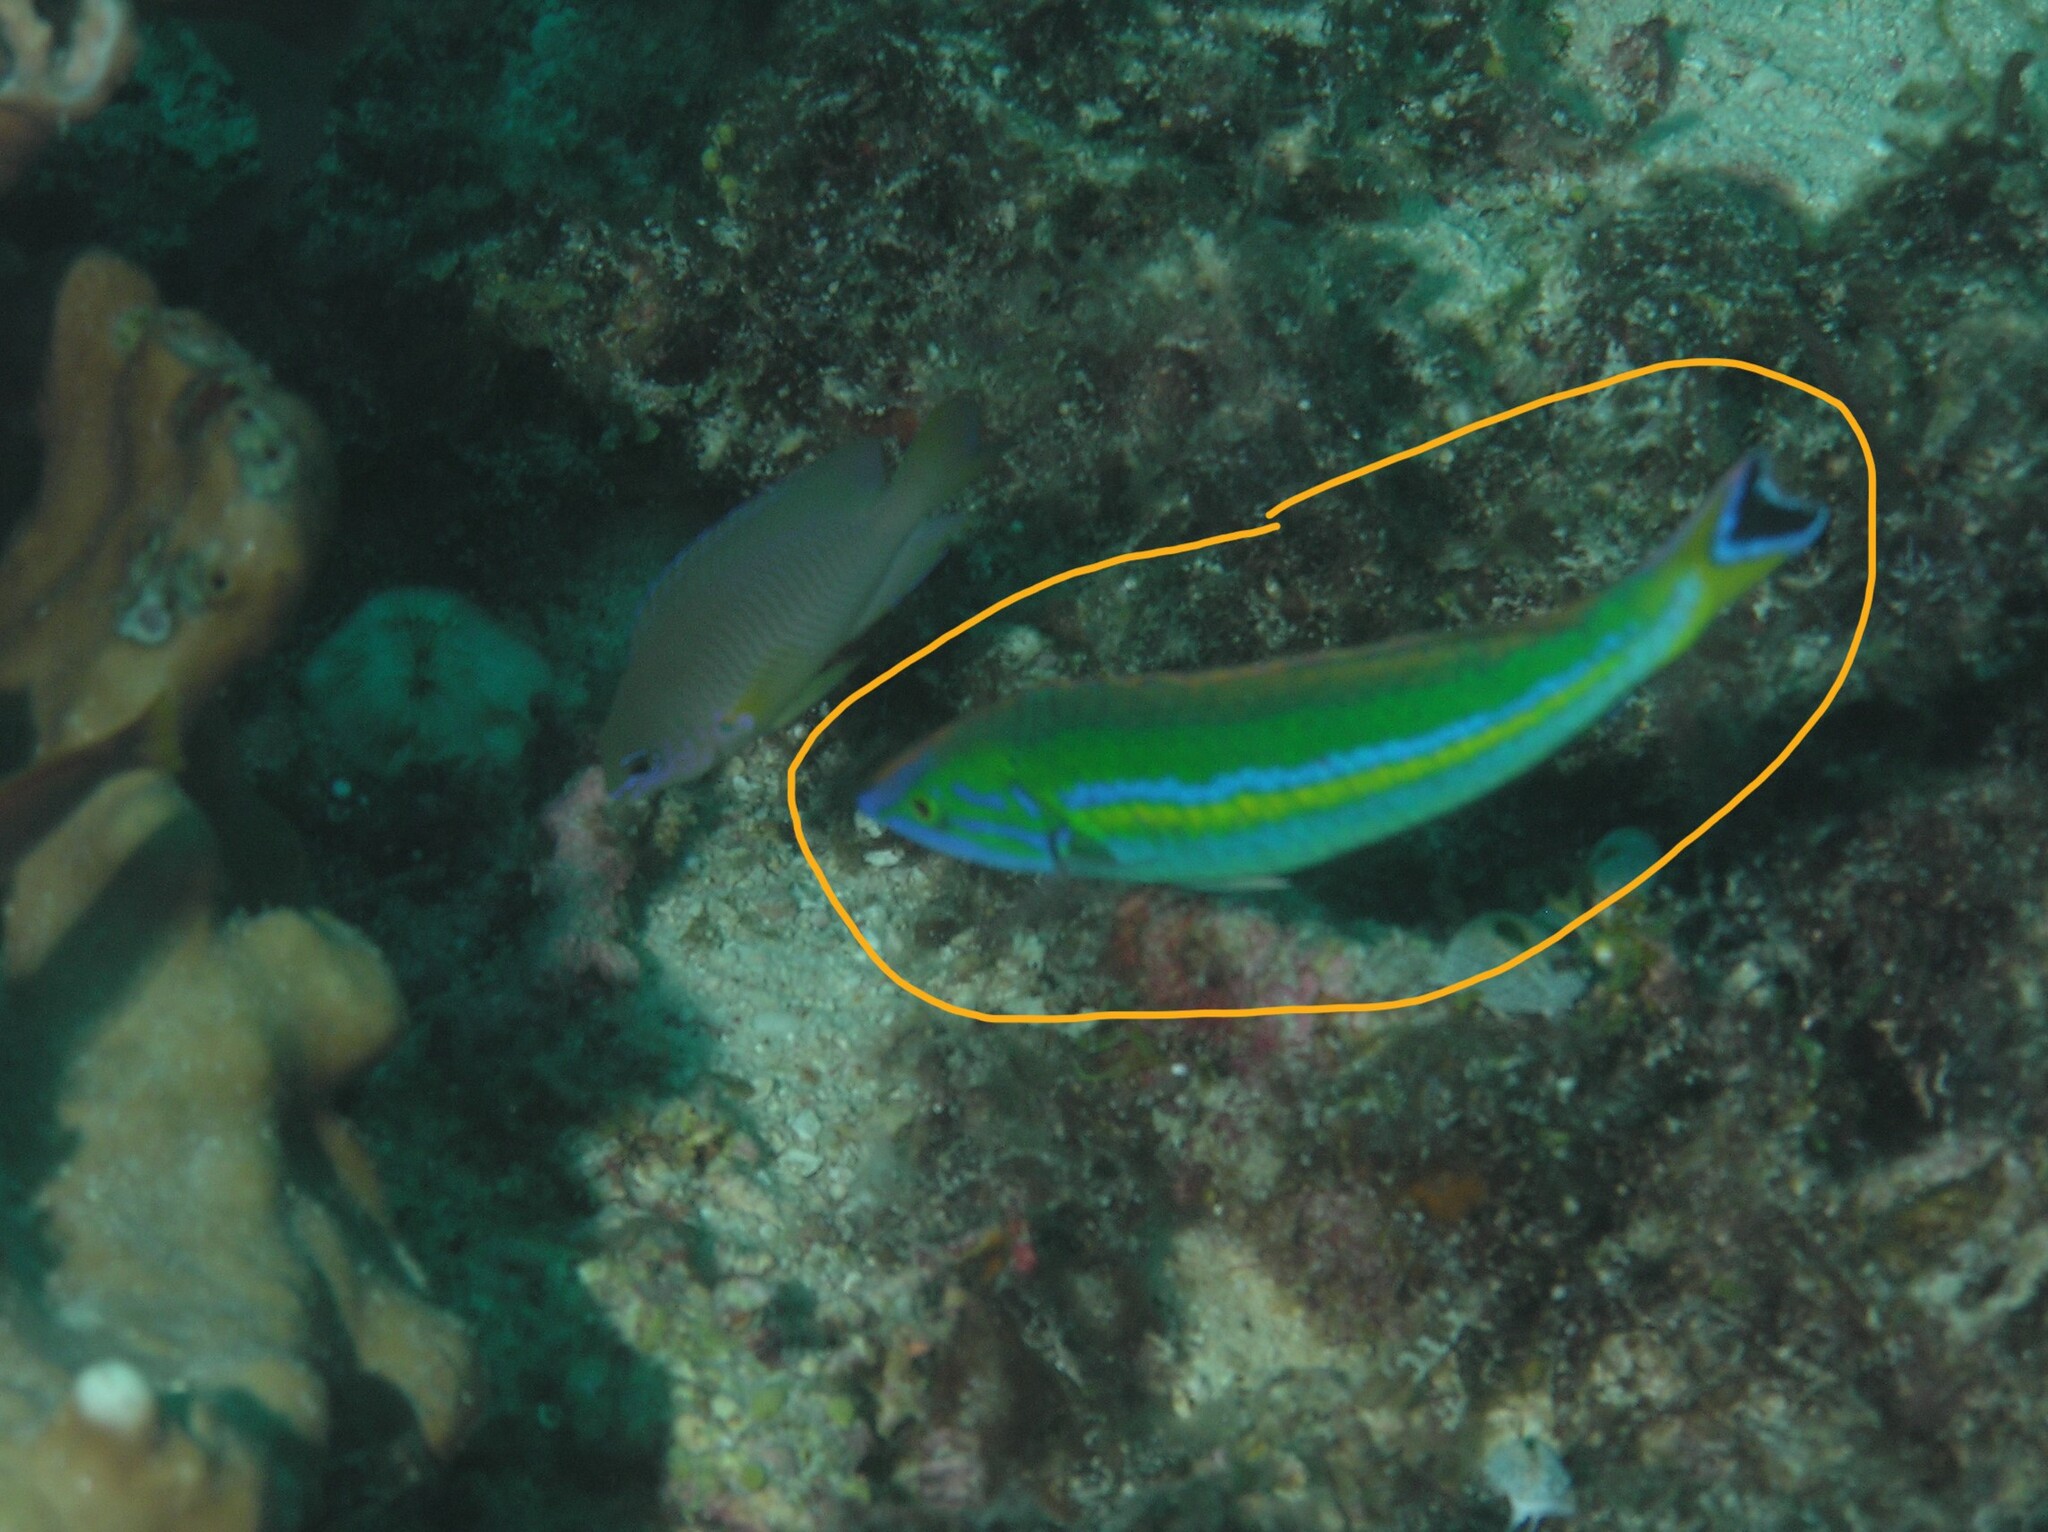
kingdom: Animalia
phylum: Chordata
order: Perciformes
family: Labridae
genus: Pseudojuloides
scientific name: Pseudojuloides splendens
